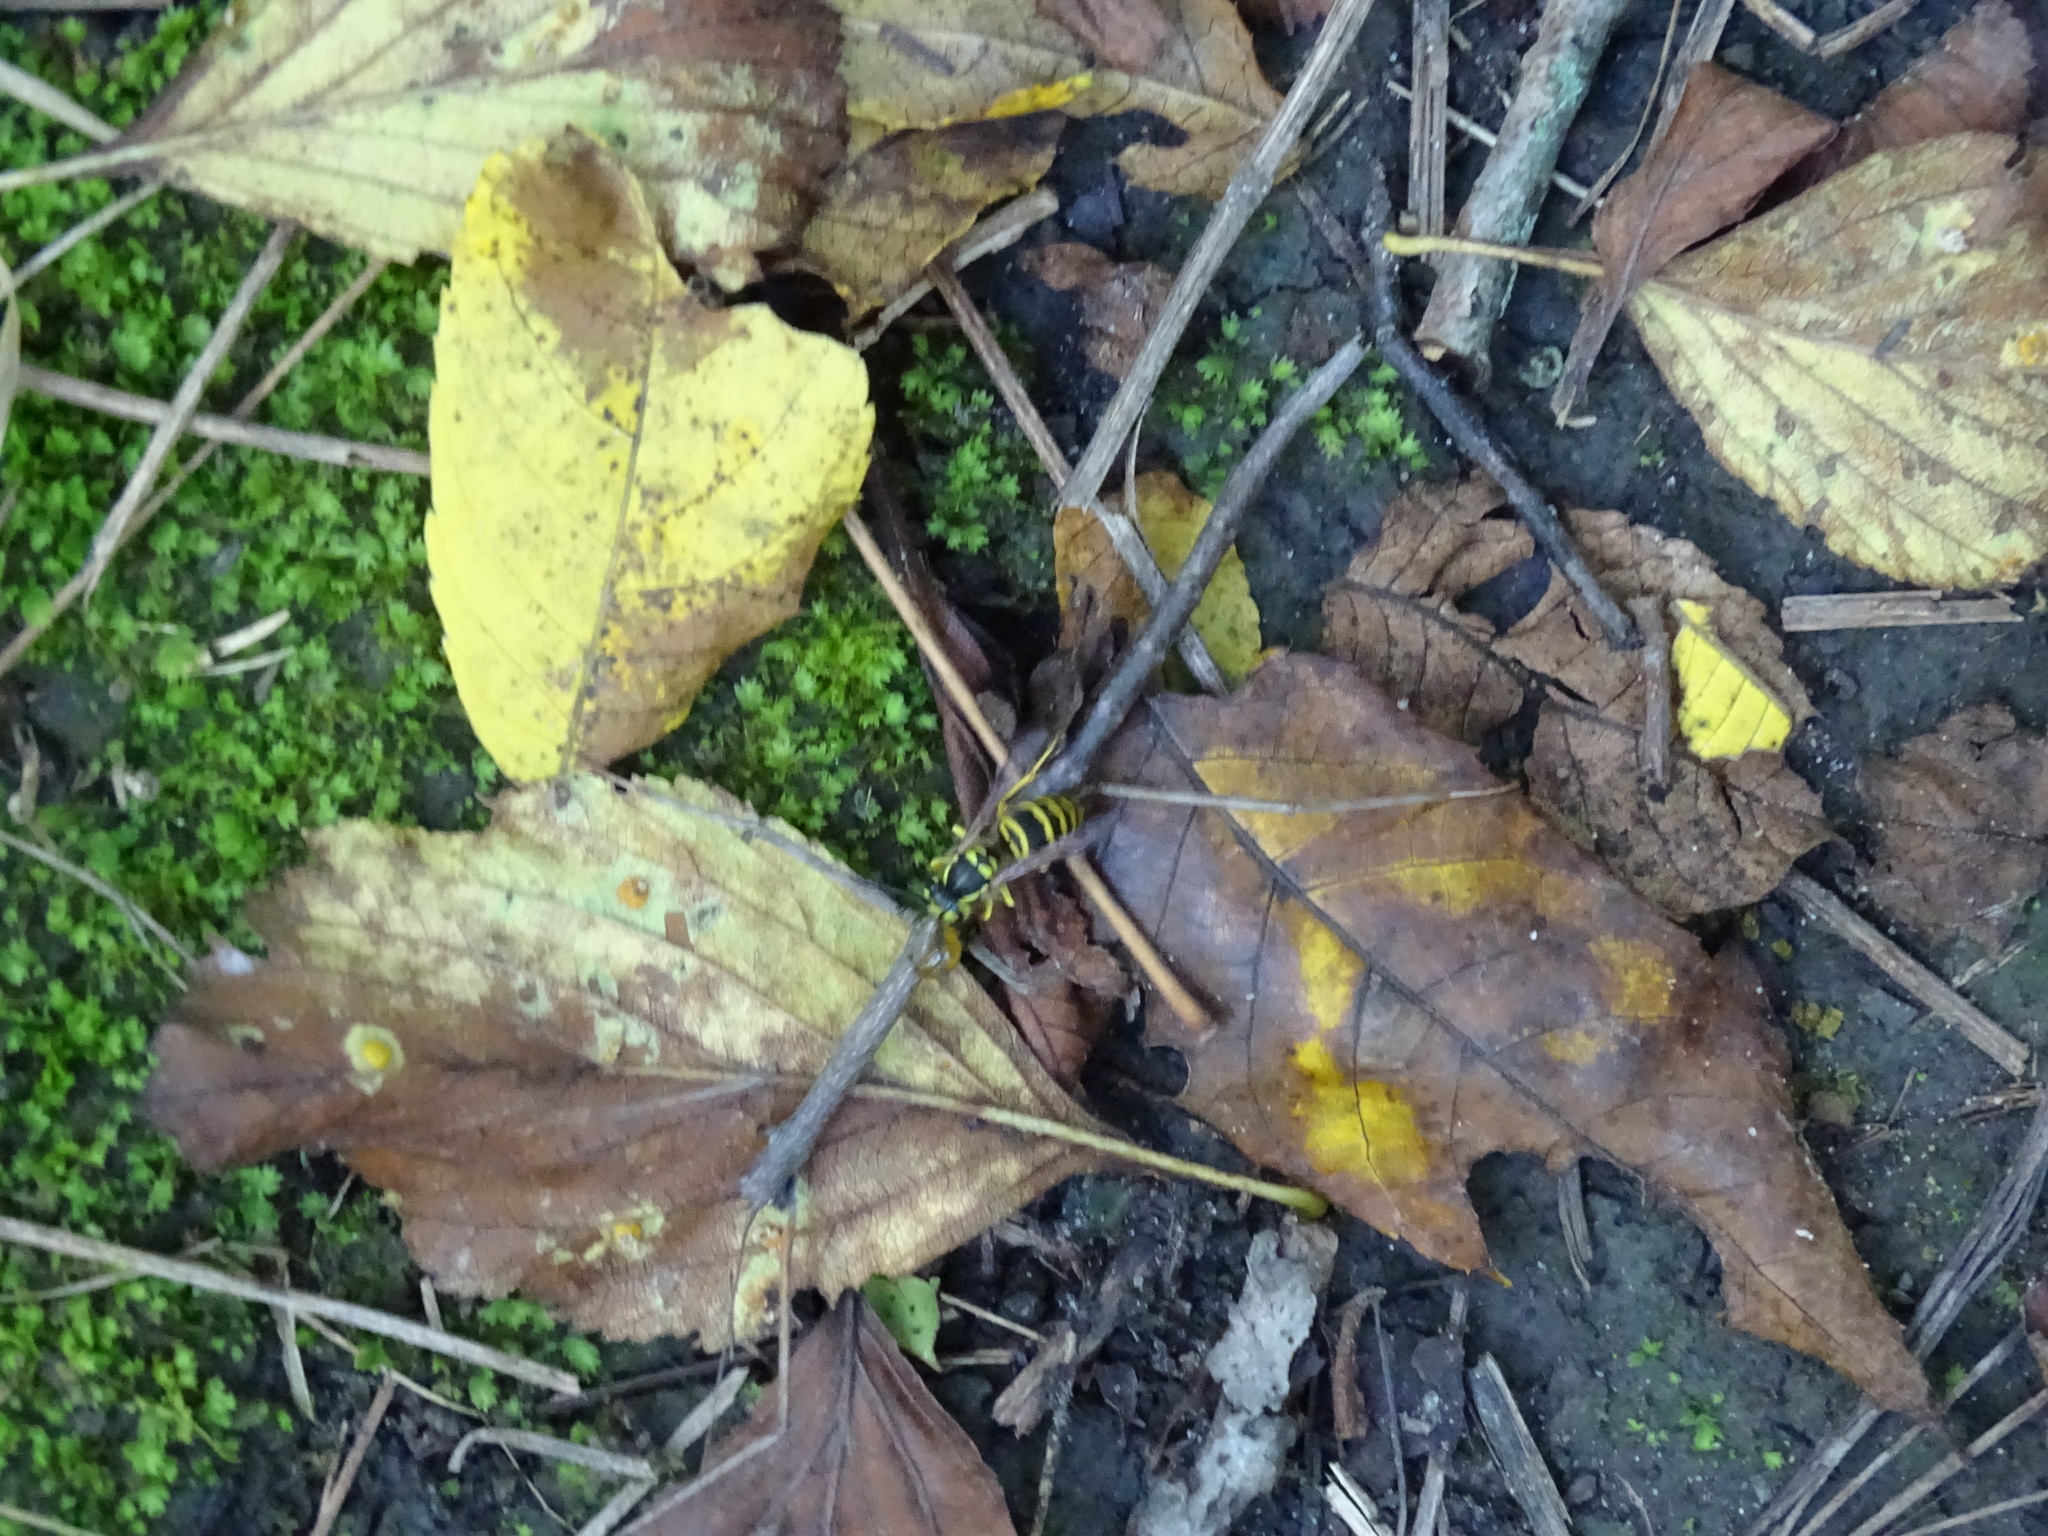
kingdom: Animalia
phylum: Arthropoda
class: Insecta
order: Phasmida
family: Diapheromeridae
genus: Diapheromera
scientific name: Diapheromera femorata
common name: Common american walkingstick
